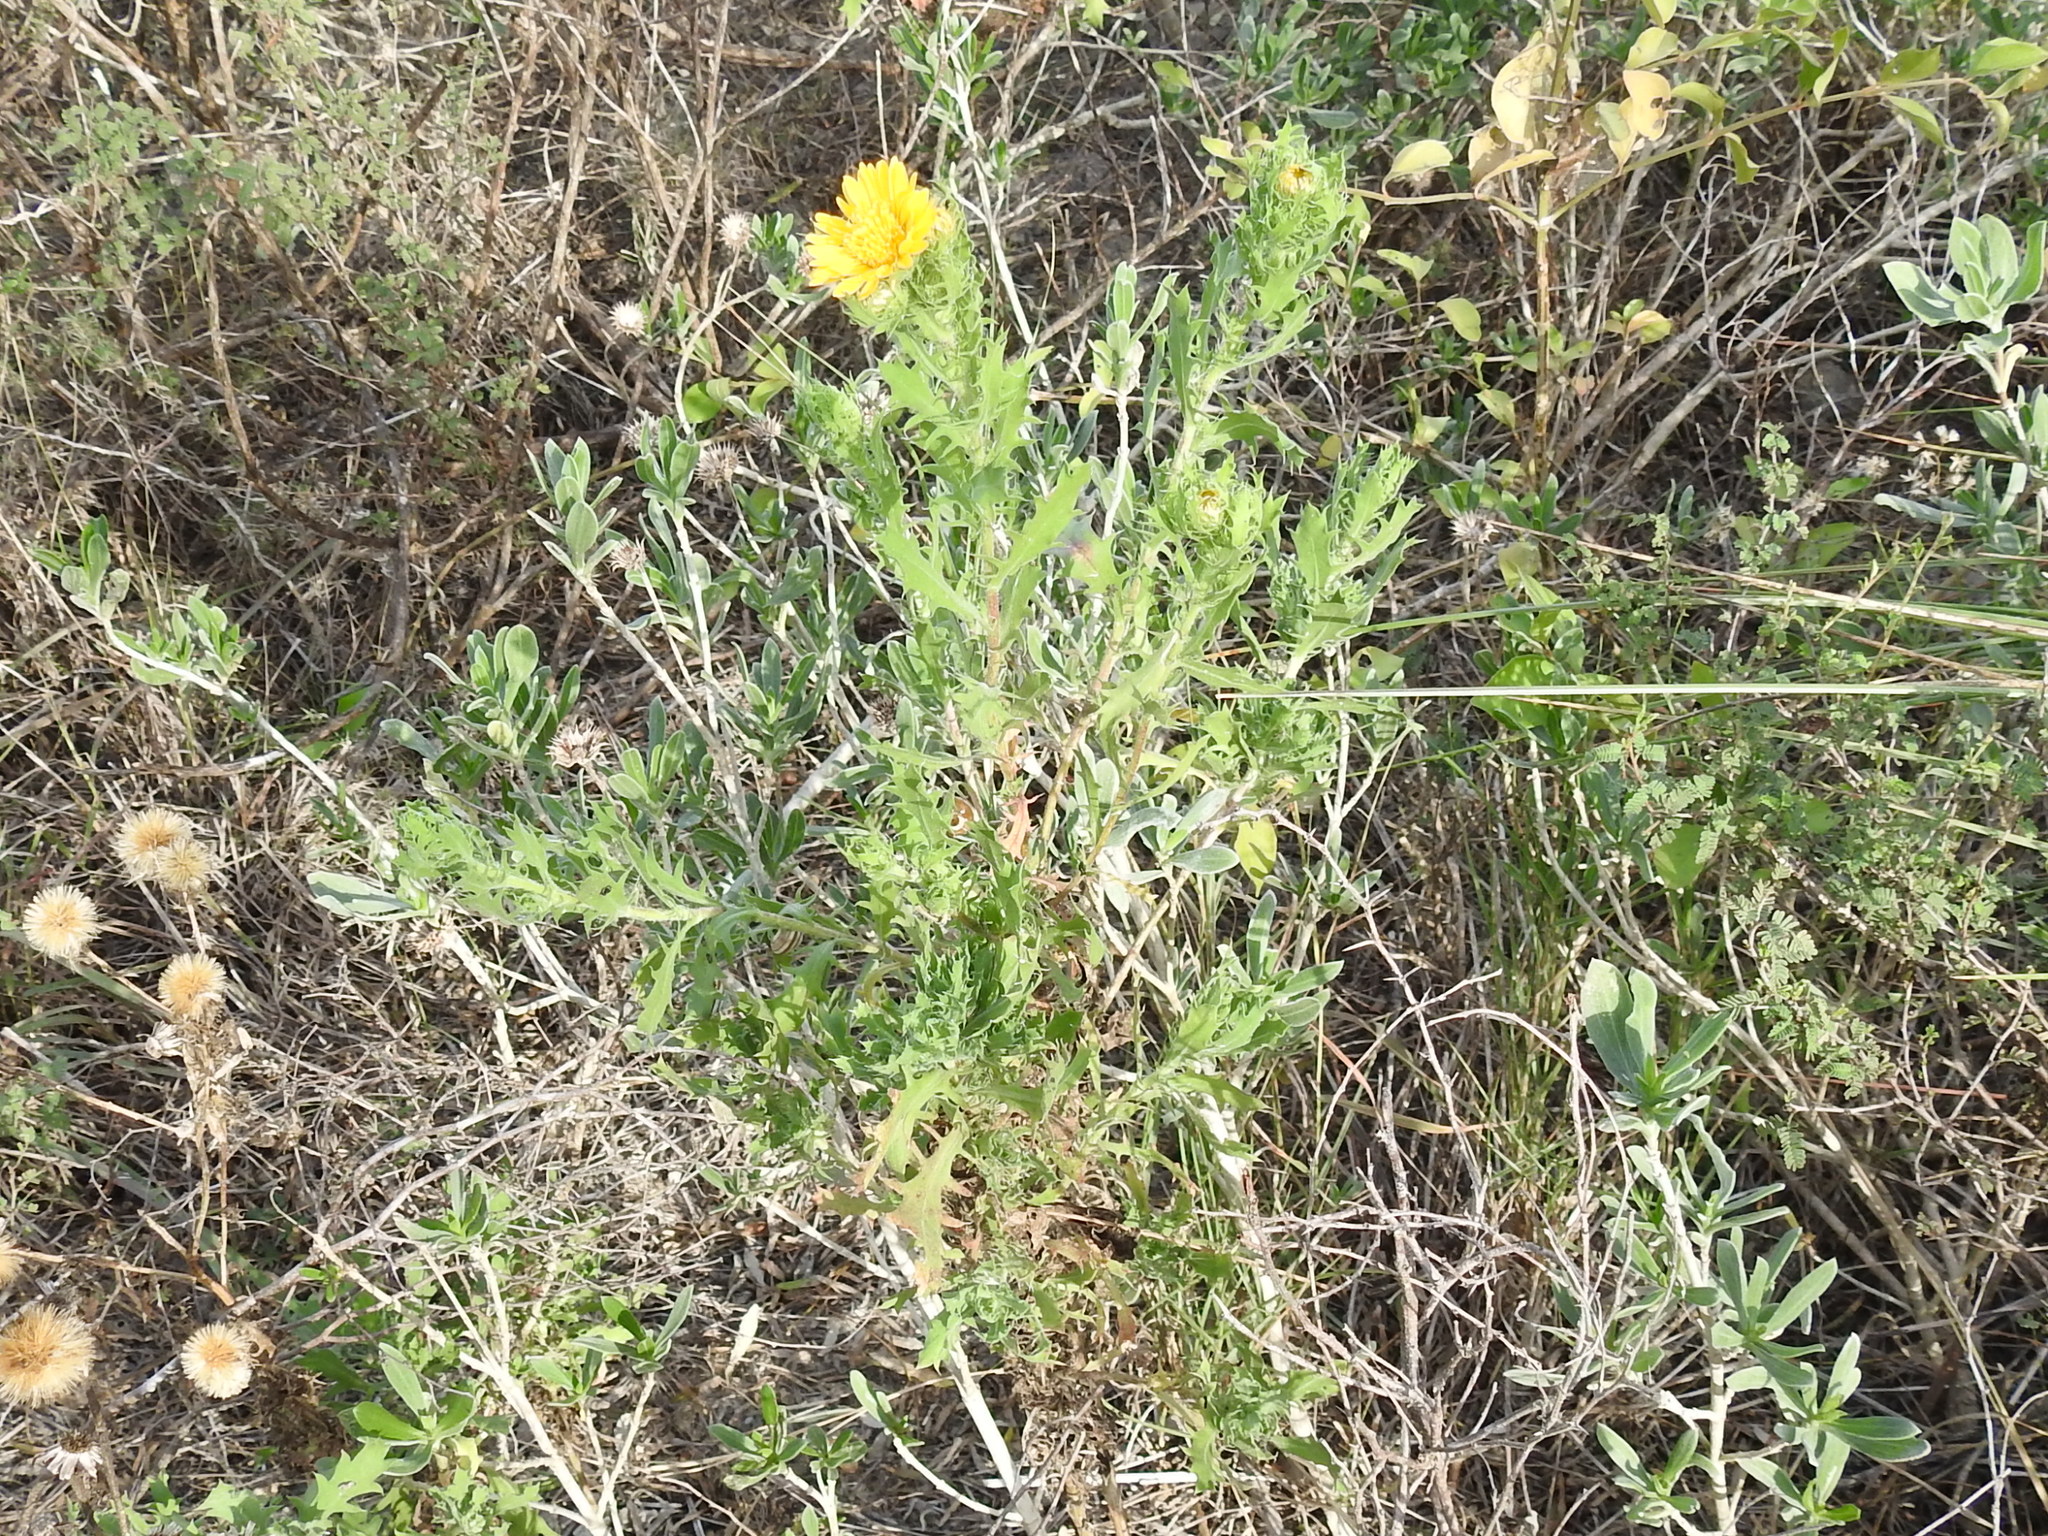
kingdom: Plantae
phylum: Tracheophyta
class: Magnoliopsida
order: Asterales
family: Asteraceae
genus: Rayjacksonia
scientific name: Rayjacksonia phyllocephala
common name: Gulf coast camphor daisy
